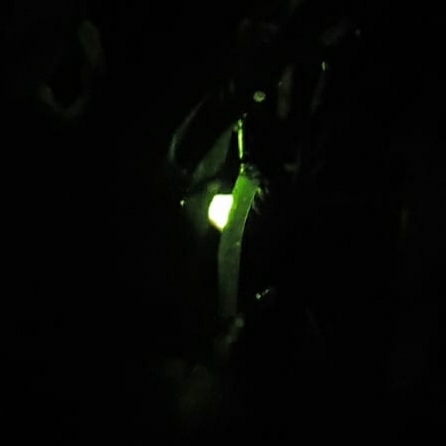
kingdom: Animalia
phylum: Arthropoda
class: Insecta
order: Coleoptera
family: Lampyridae
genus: Lampyris
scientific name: Lampyris noctiluca
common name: Glow-worm
